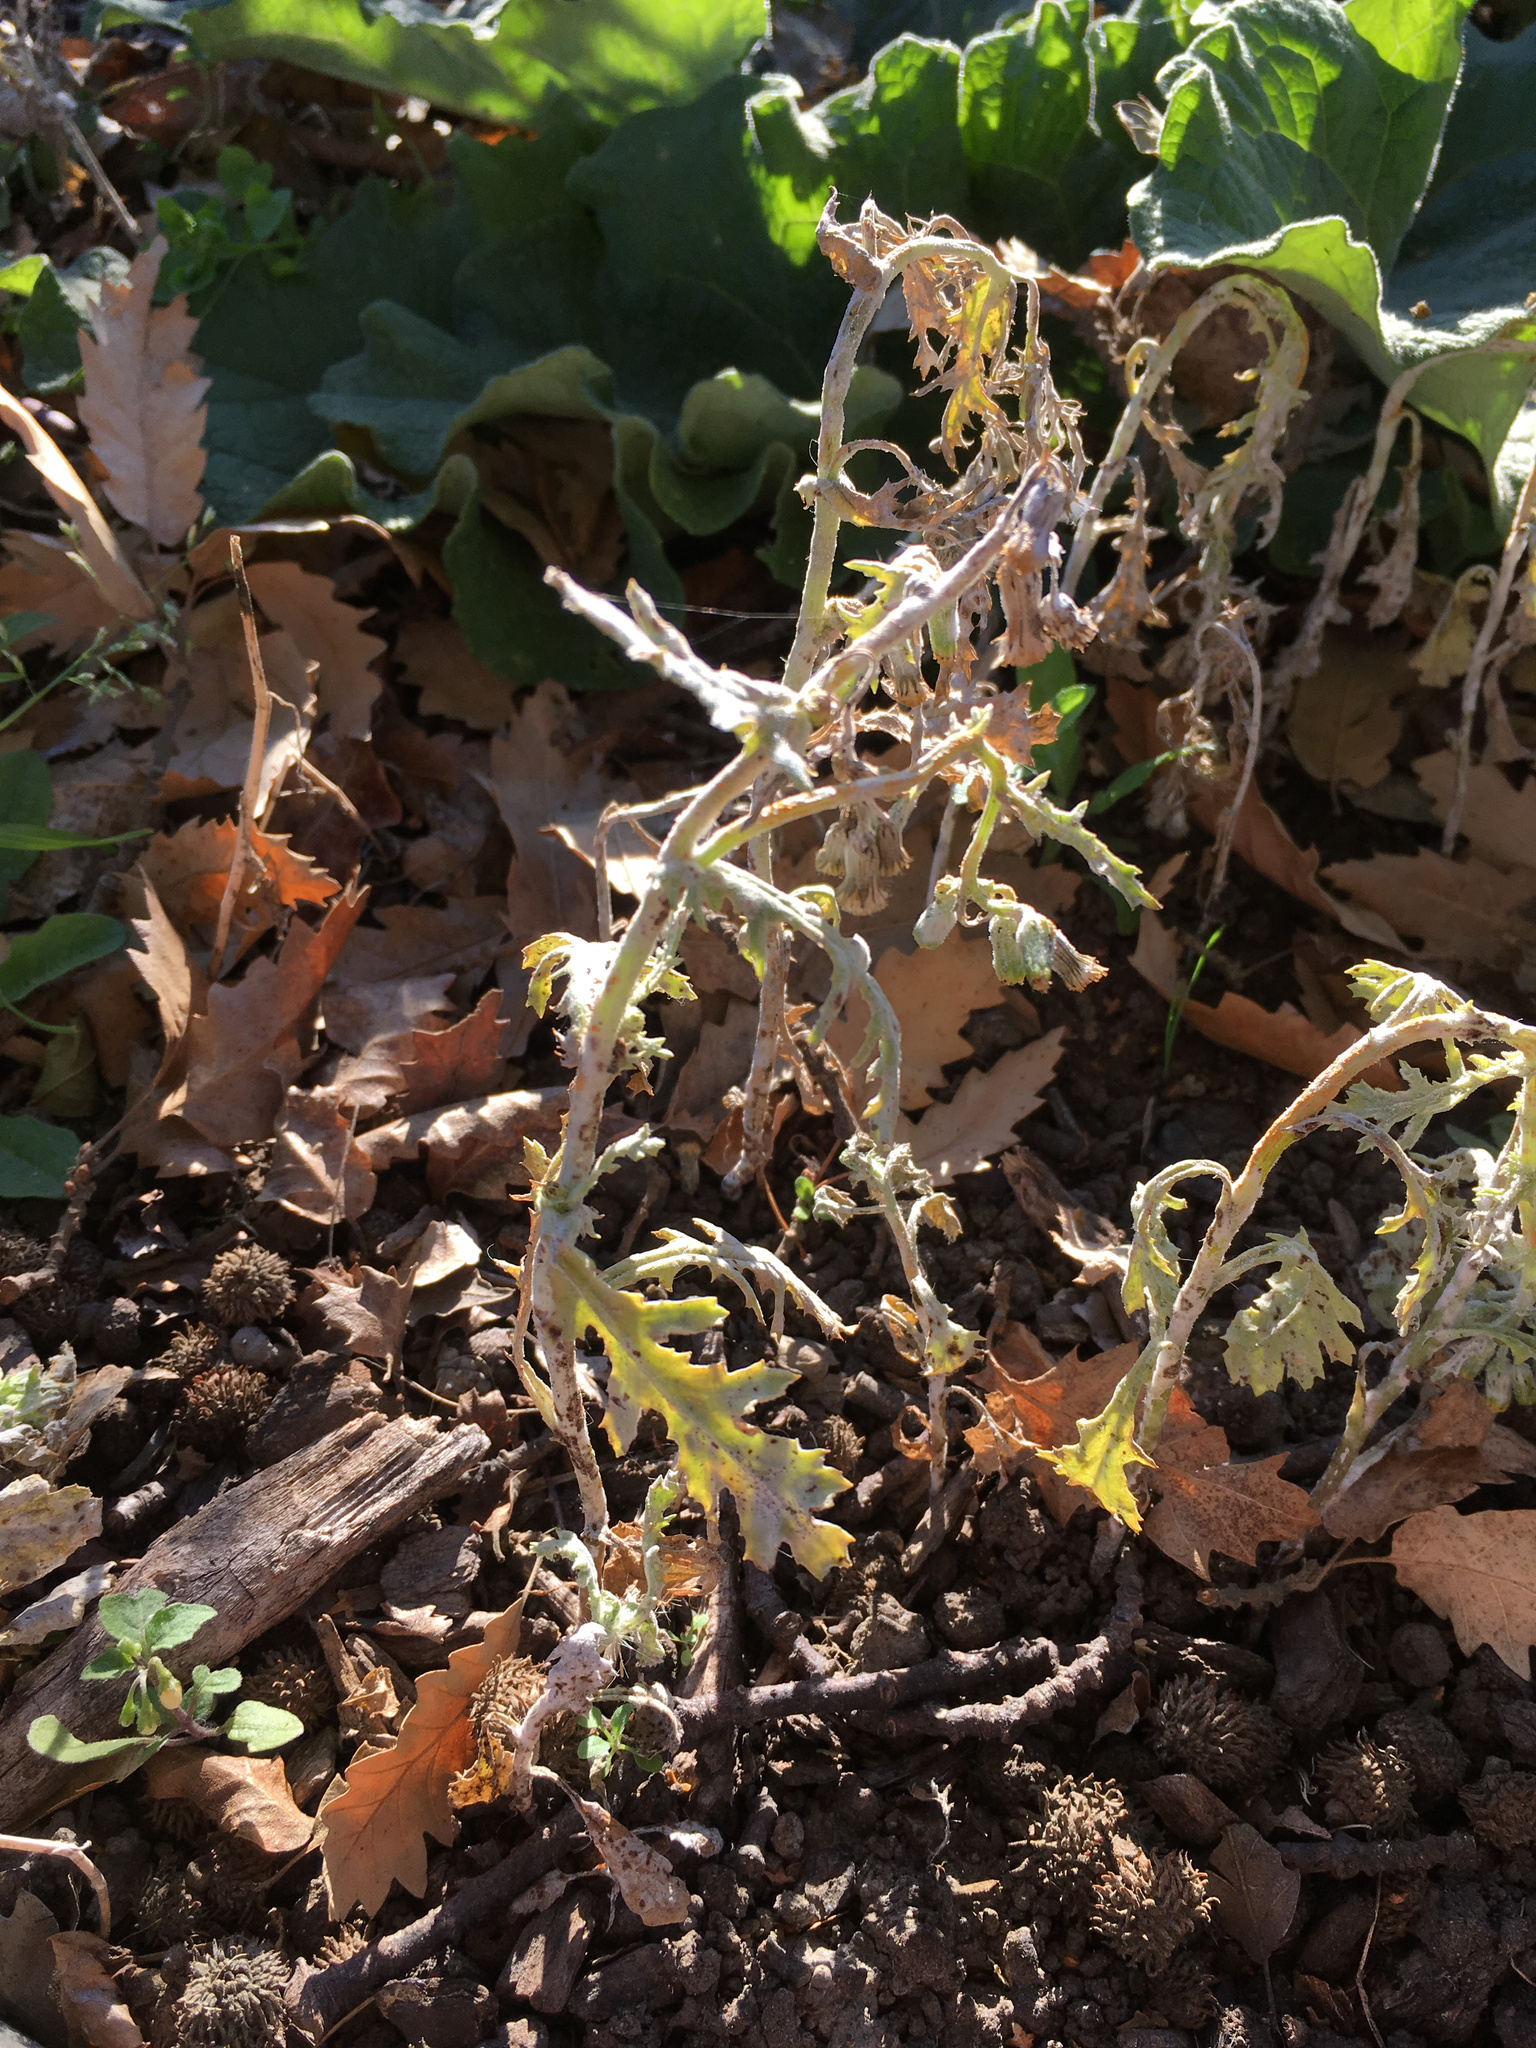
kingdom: Fungi
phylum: Ascomycota
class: Leotiomycetes
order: Helotiales
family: Erysiphaceae
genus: Neoerysiphe
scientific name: Neoerysiphe kerribeeensis
